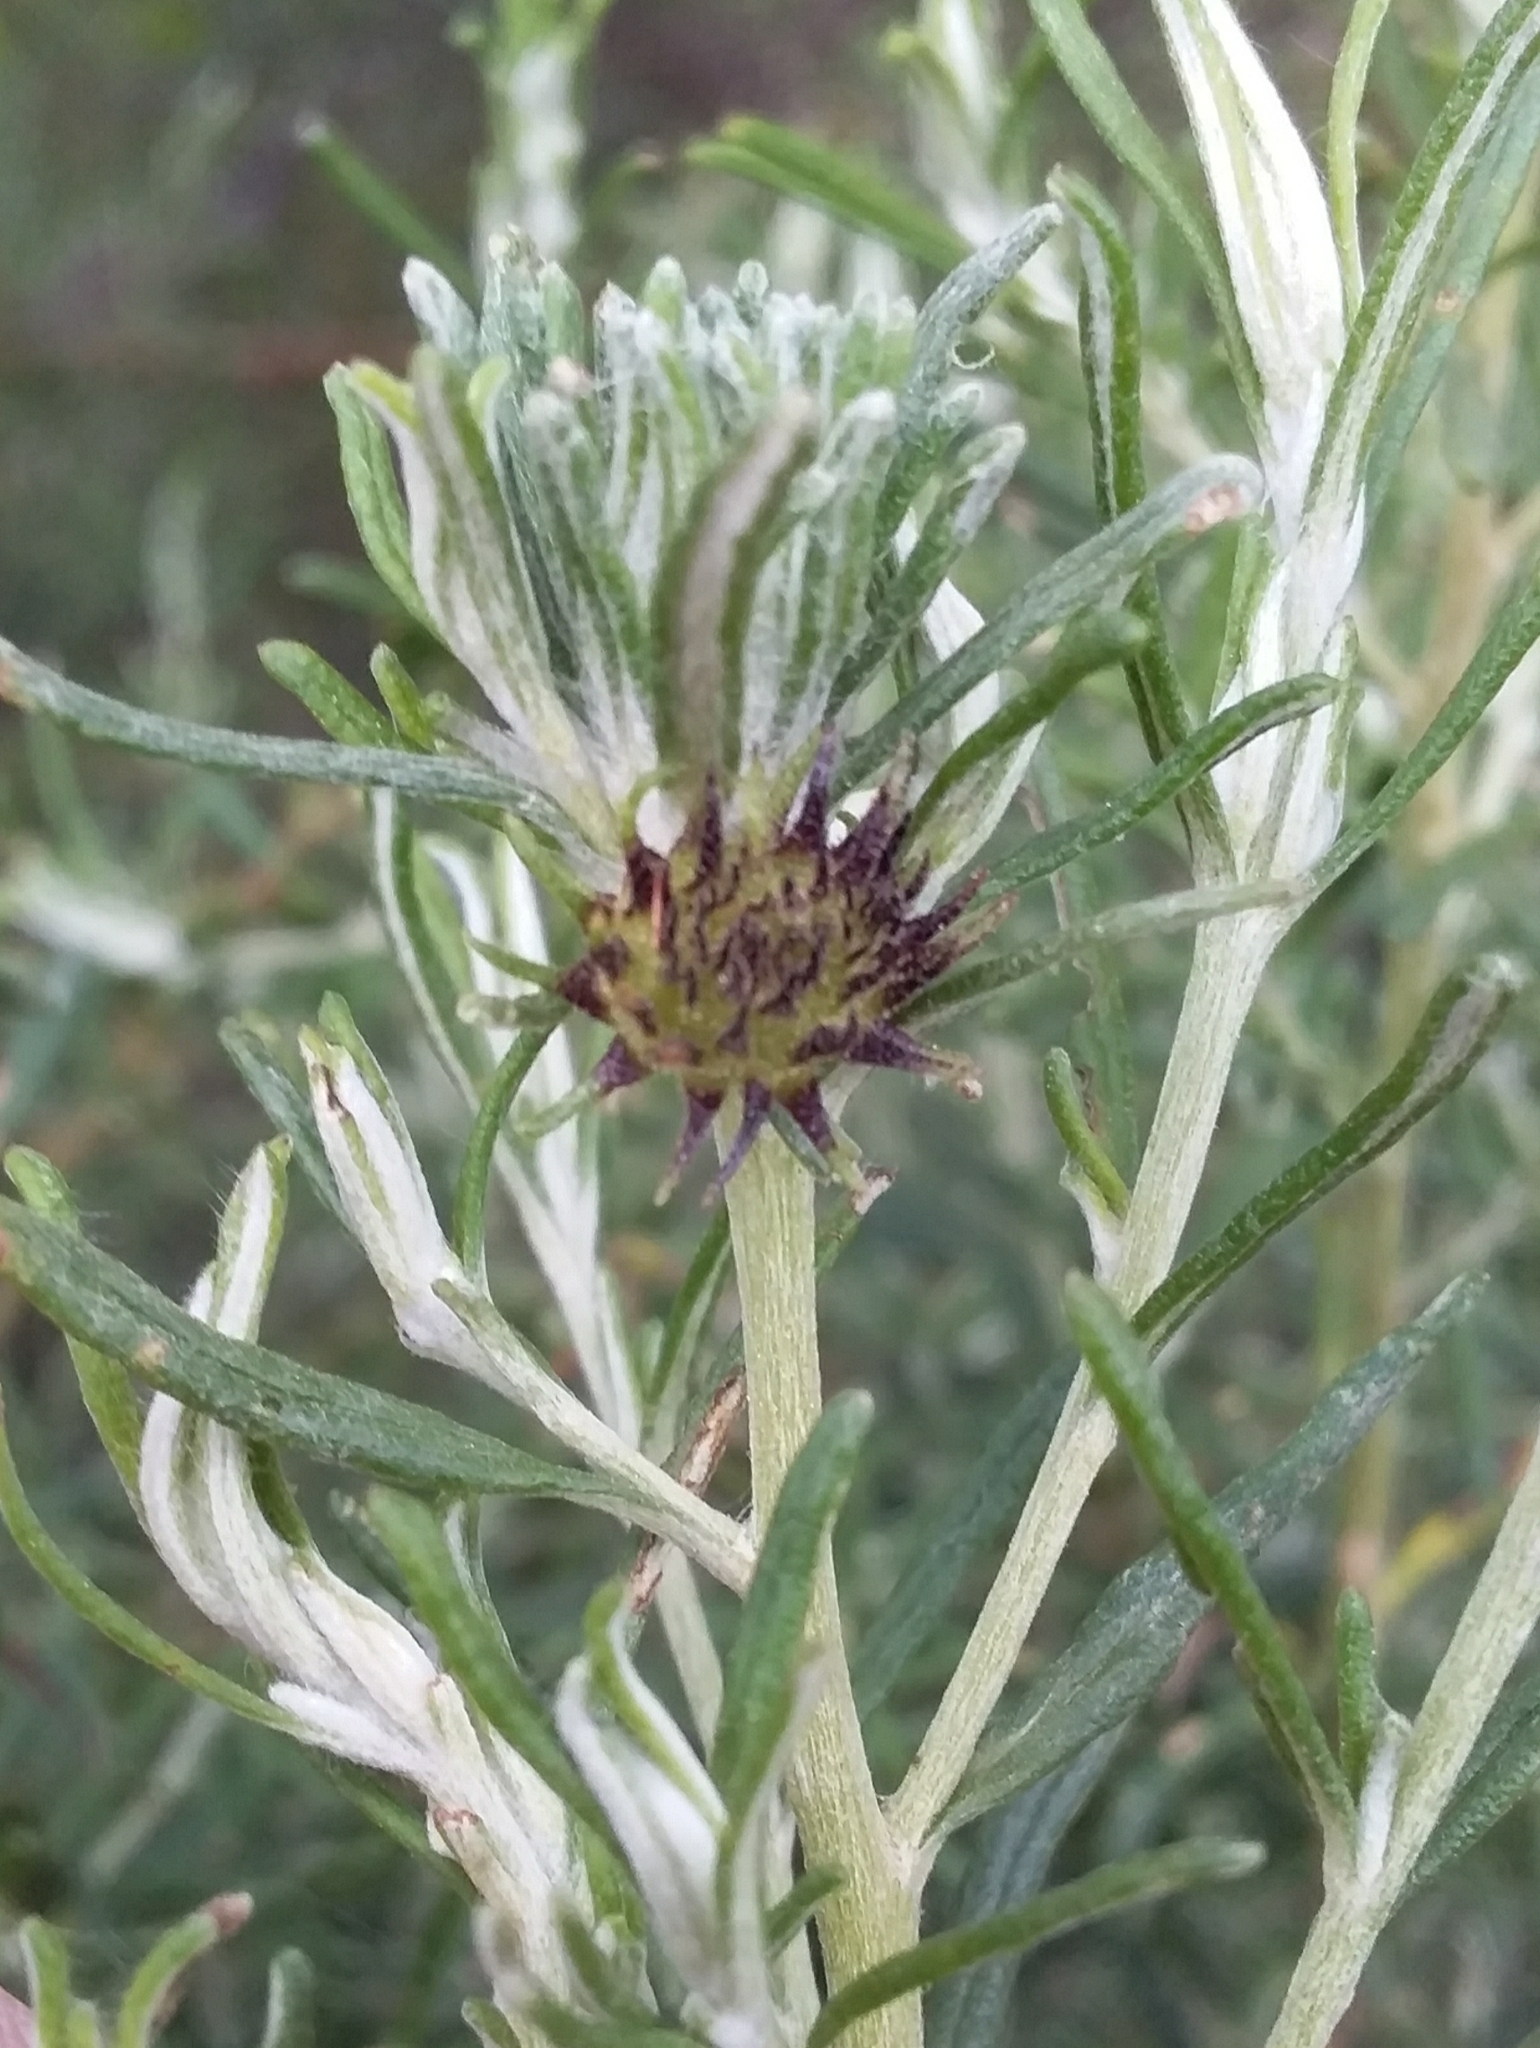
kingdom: Animalia
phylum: Arthropoda
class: Insecta
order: Diptera
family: Cecidomyiidae
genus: Trigonomyia
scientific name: Trigonomyia ananas
